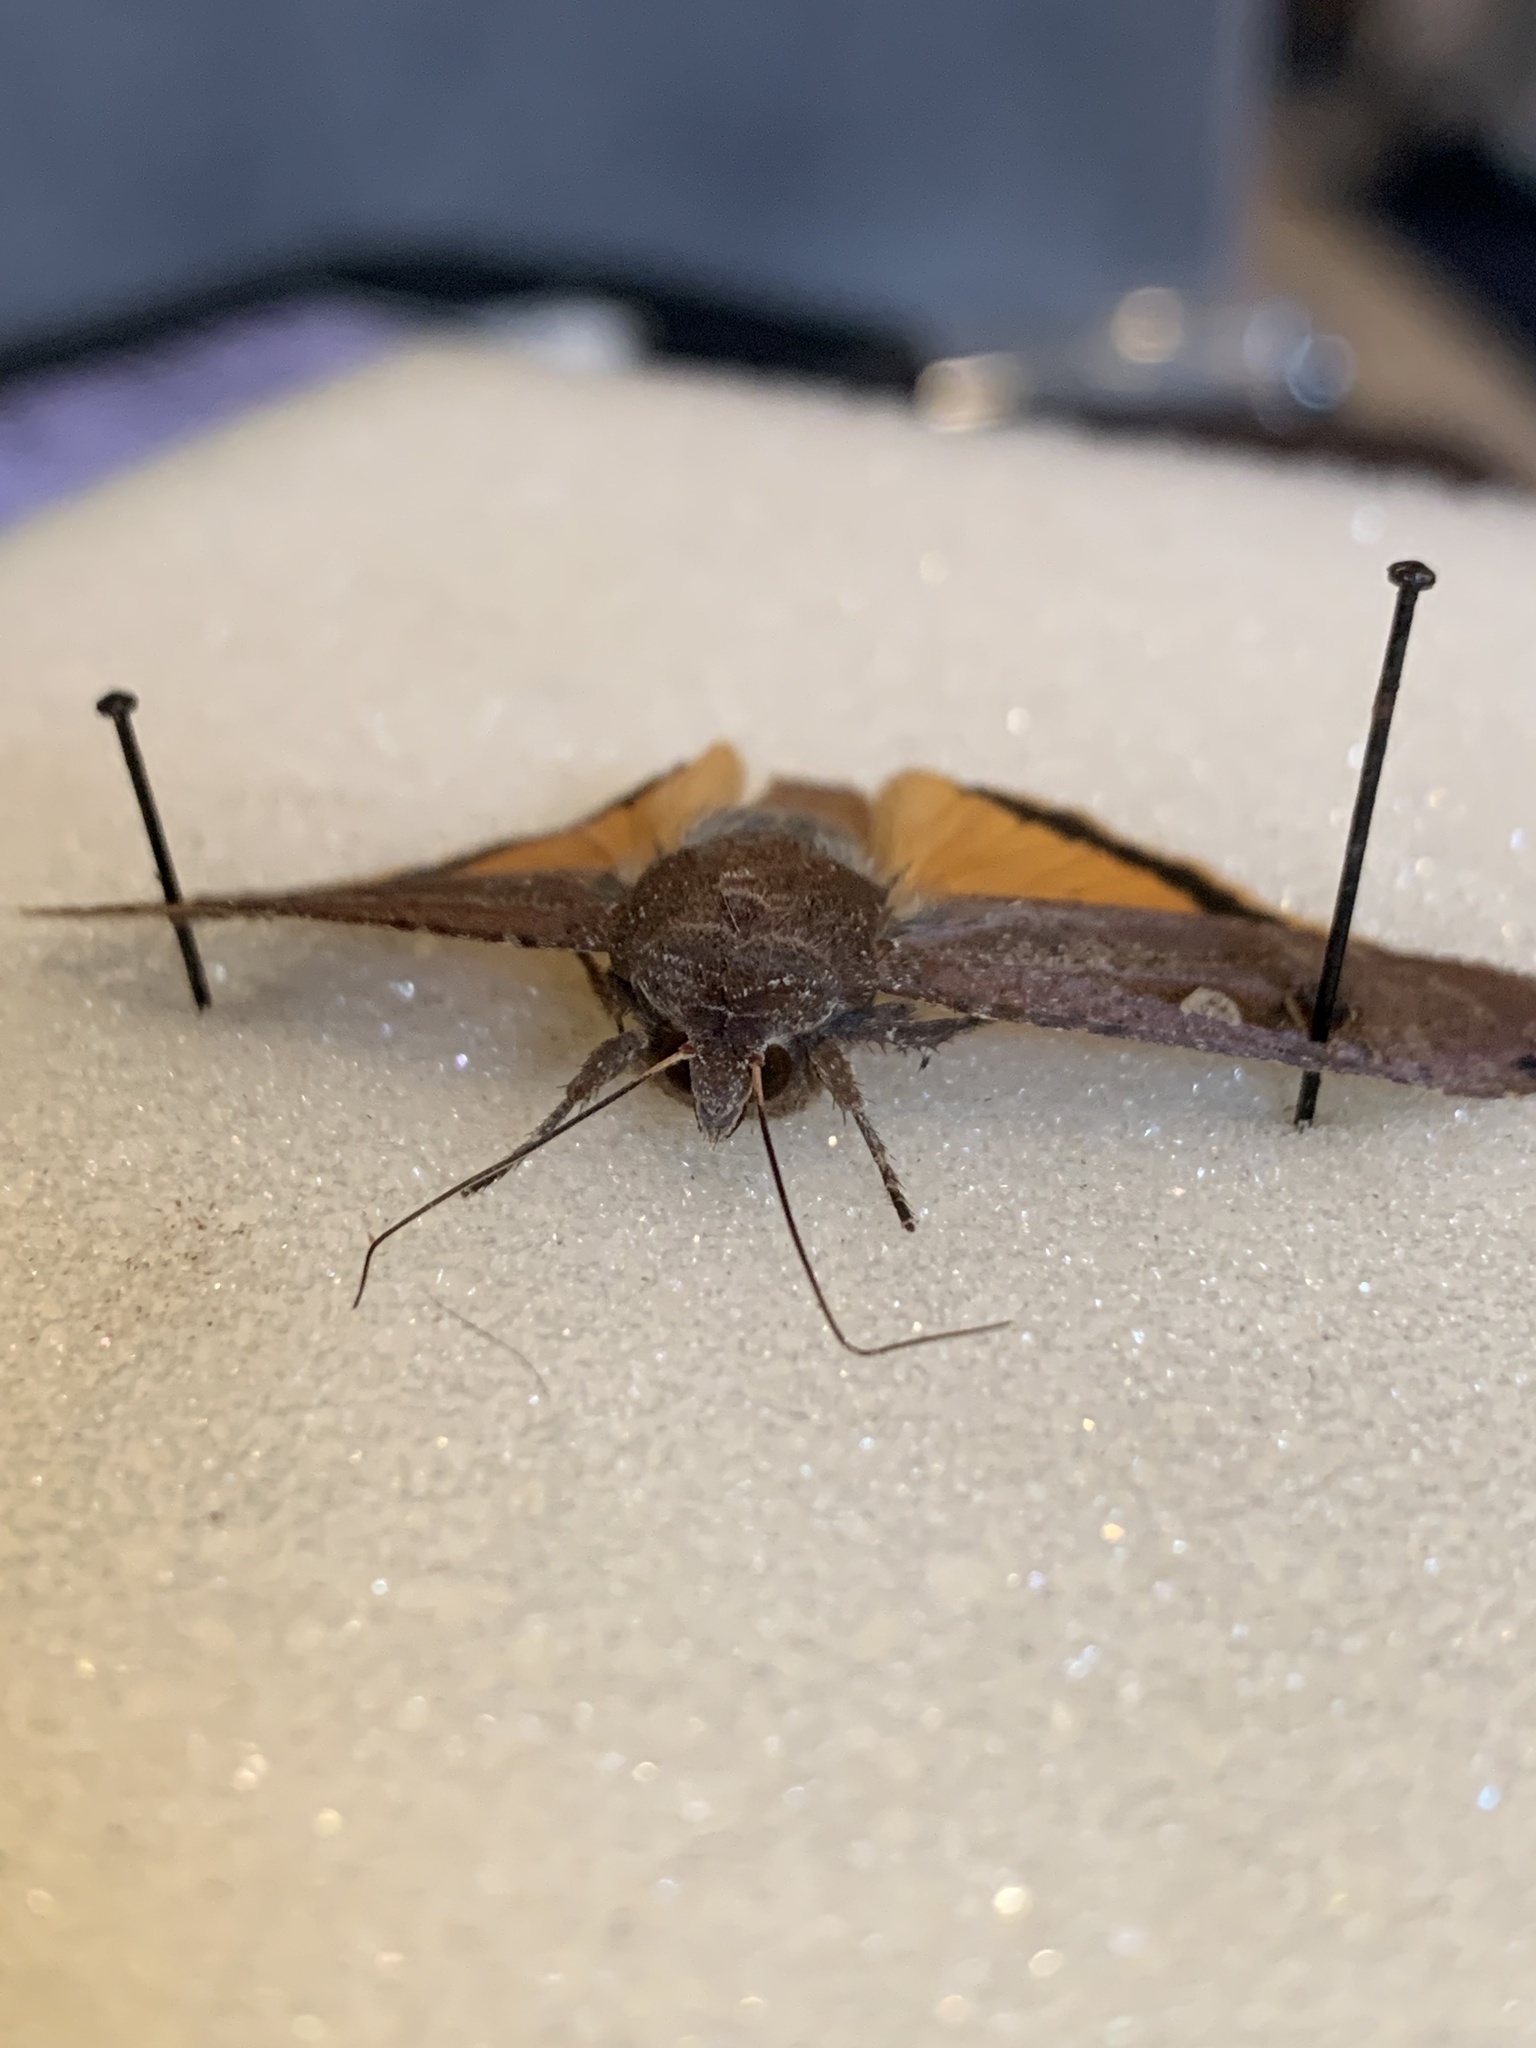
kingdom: Animalia
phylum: Arthropoda
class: Insecta
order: Lepidoptera
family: Noctuidae
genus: Noctua
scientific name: Noctua pronuba
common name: Large yellow underwing
